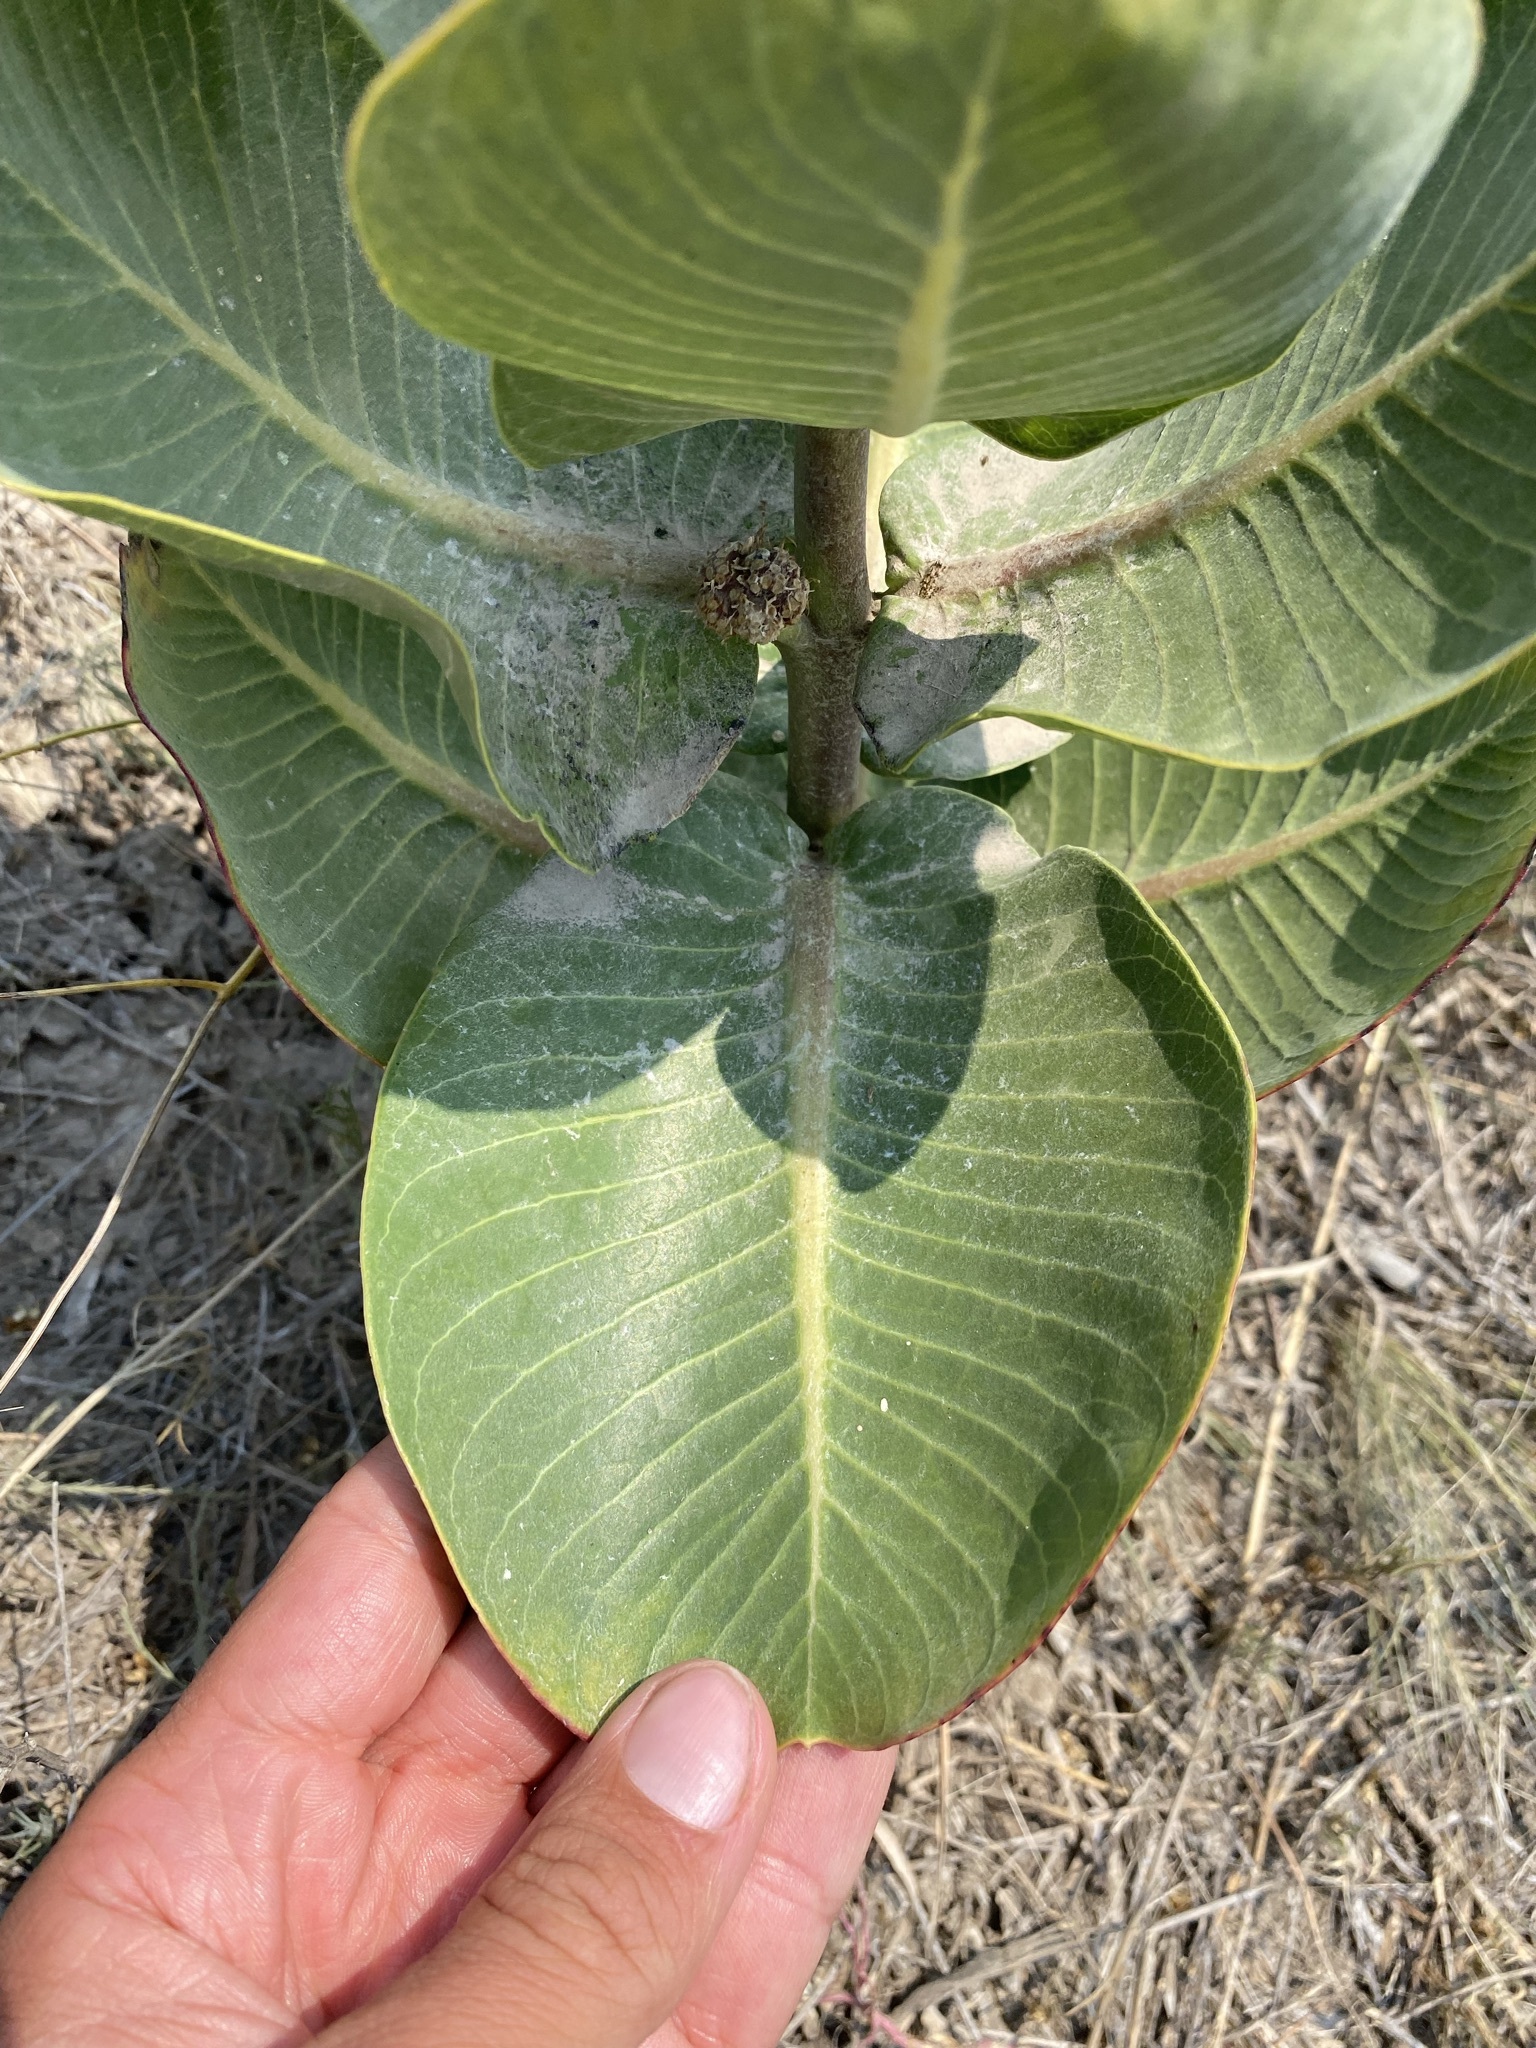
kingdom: Plantae
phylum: Tracheophyta
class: Magnoliopsida
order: Gentianales
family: Apocynaceae
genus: Asclepias
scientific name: Asclepias latifolia
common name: Broadleaf milkweed
